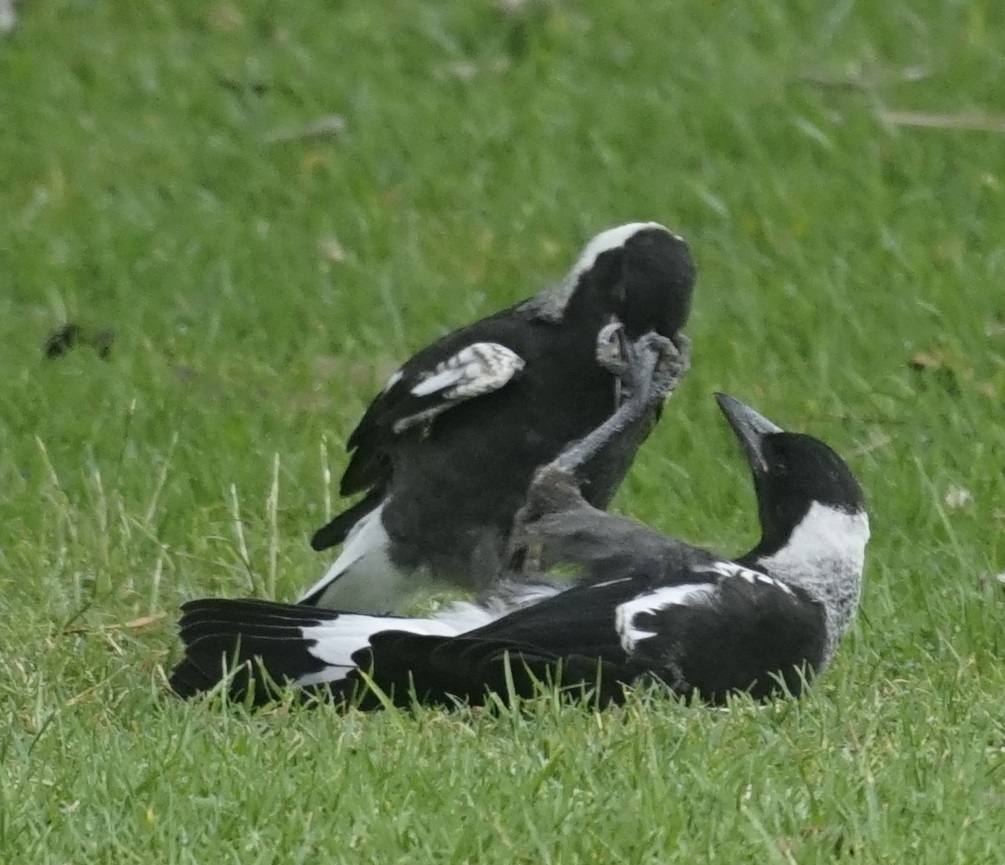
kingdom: Animalia
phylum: Chordata
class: Aves
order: Passeriformes
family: Cracticidae
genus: Gymnorhina
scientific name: Gymnorhina tibicen
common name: Australian magpie
